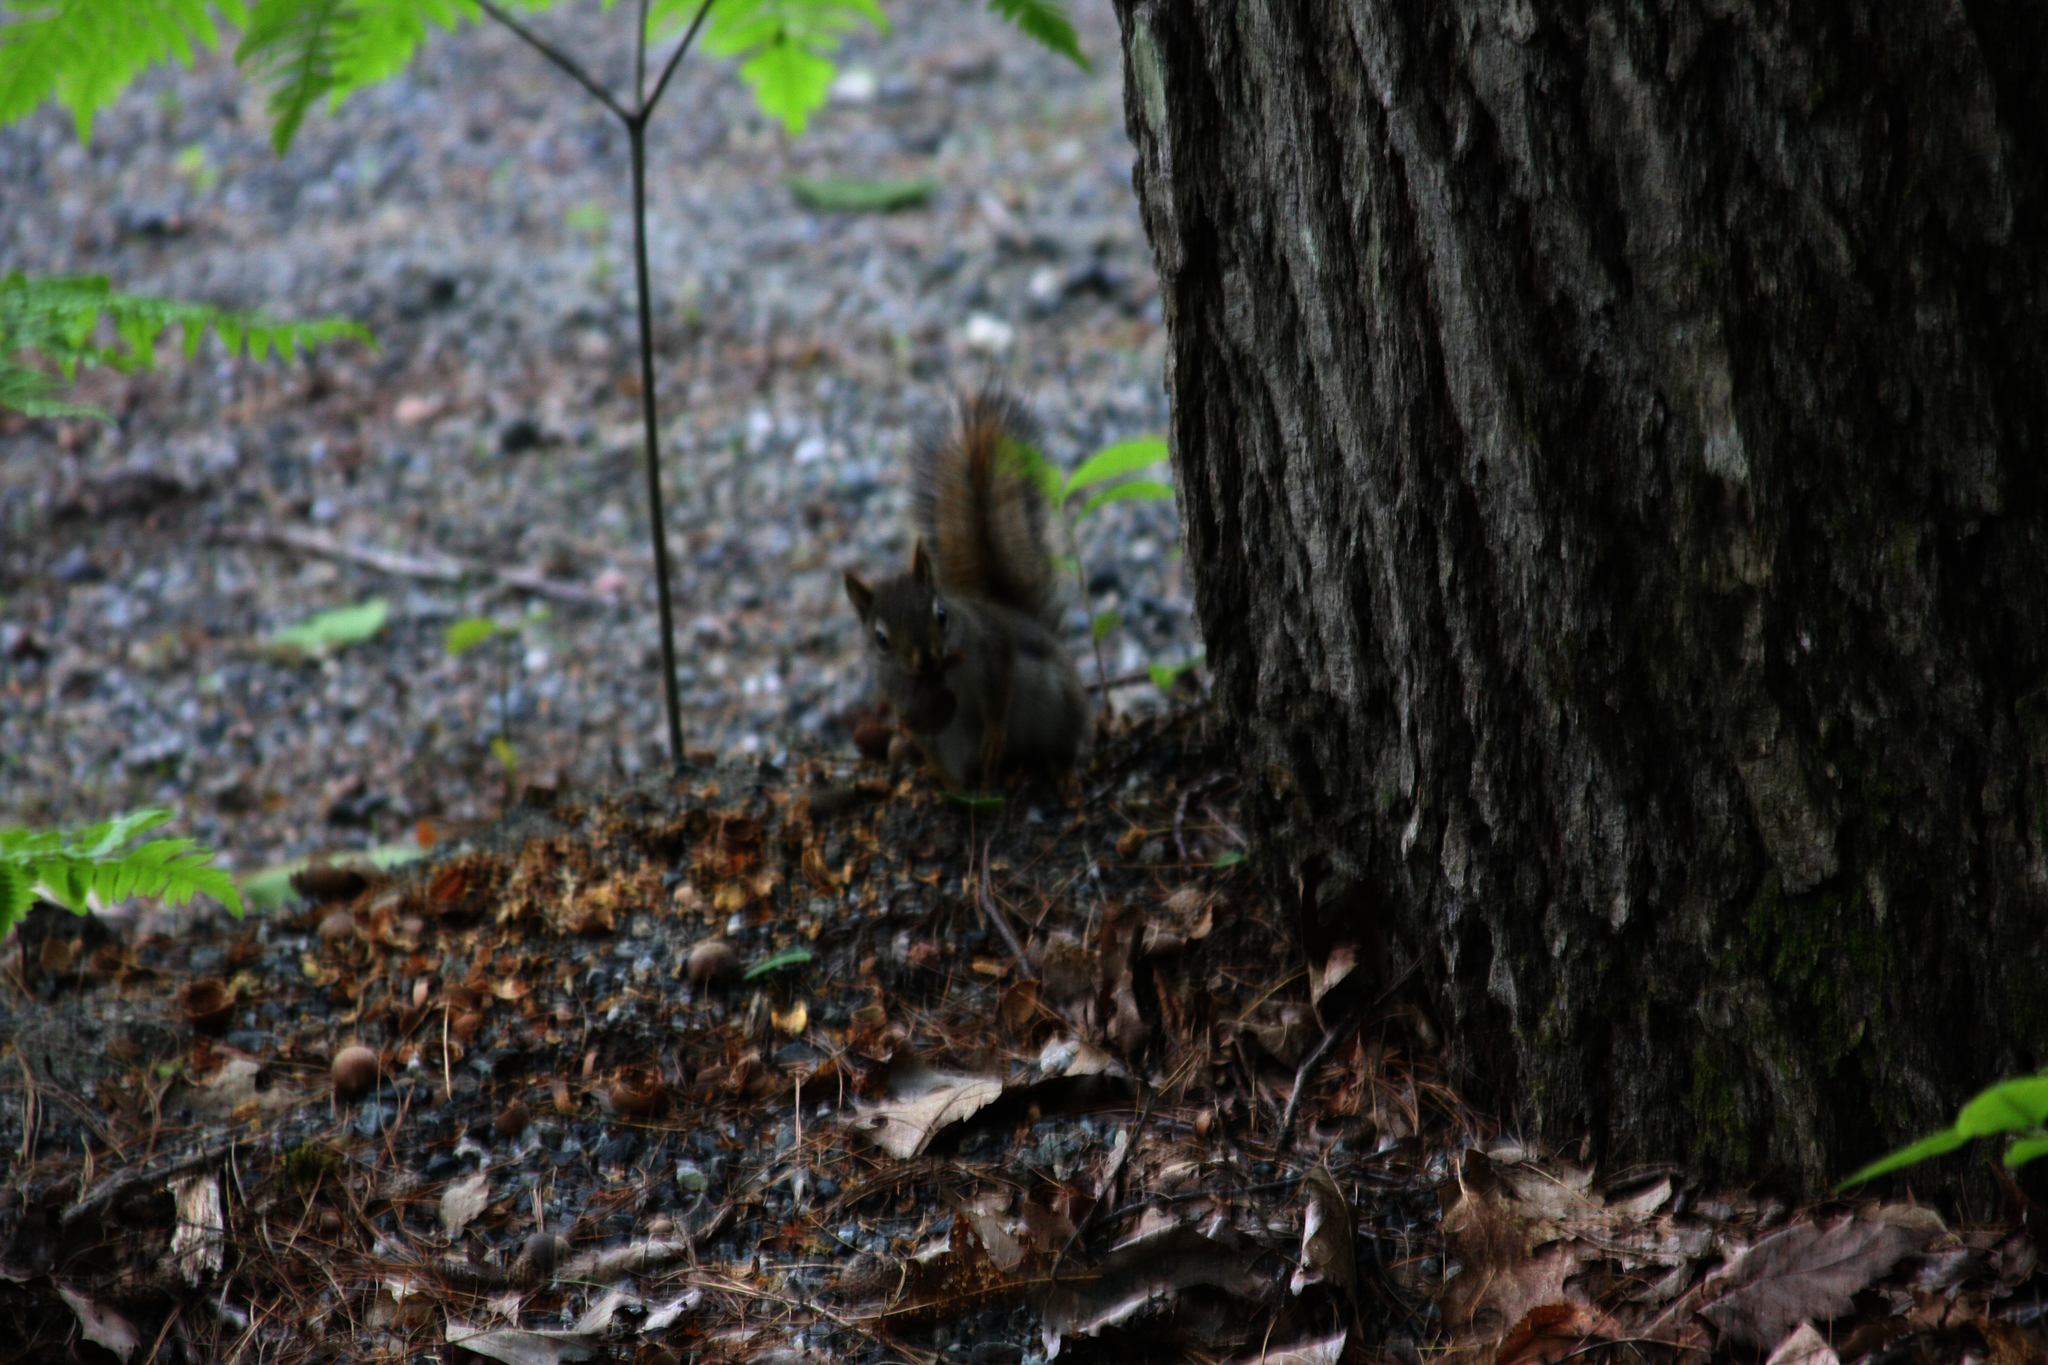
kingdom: Animalia
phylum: Chordata
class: Mammalia
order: Rodentia
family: Sciuridae
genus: Tamiasciurus
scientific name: Tamiasciurus hudsonicus
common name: Red squirrel
